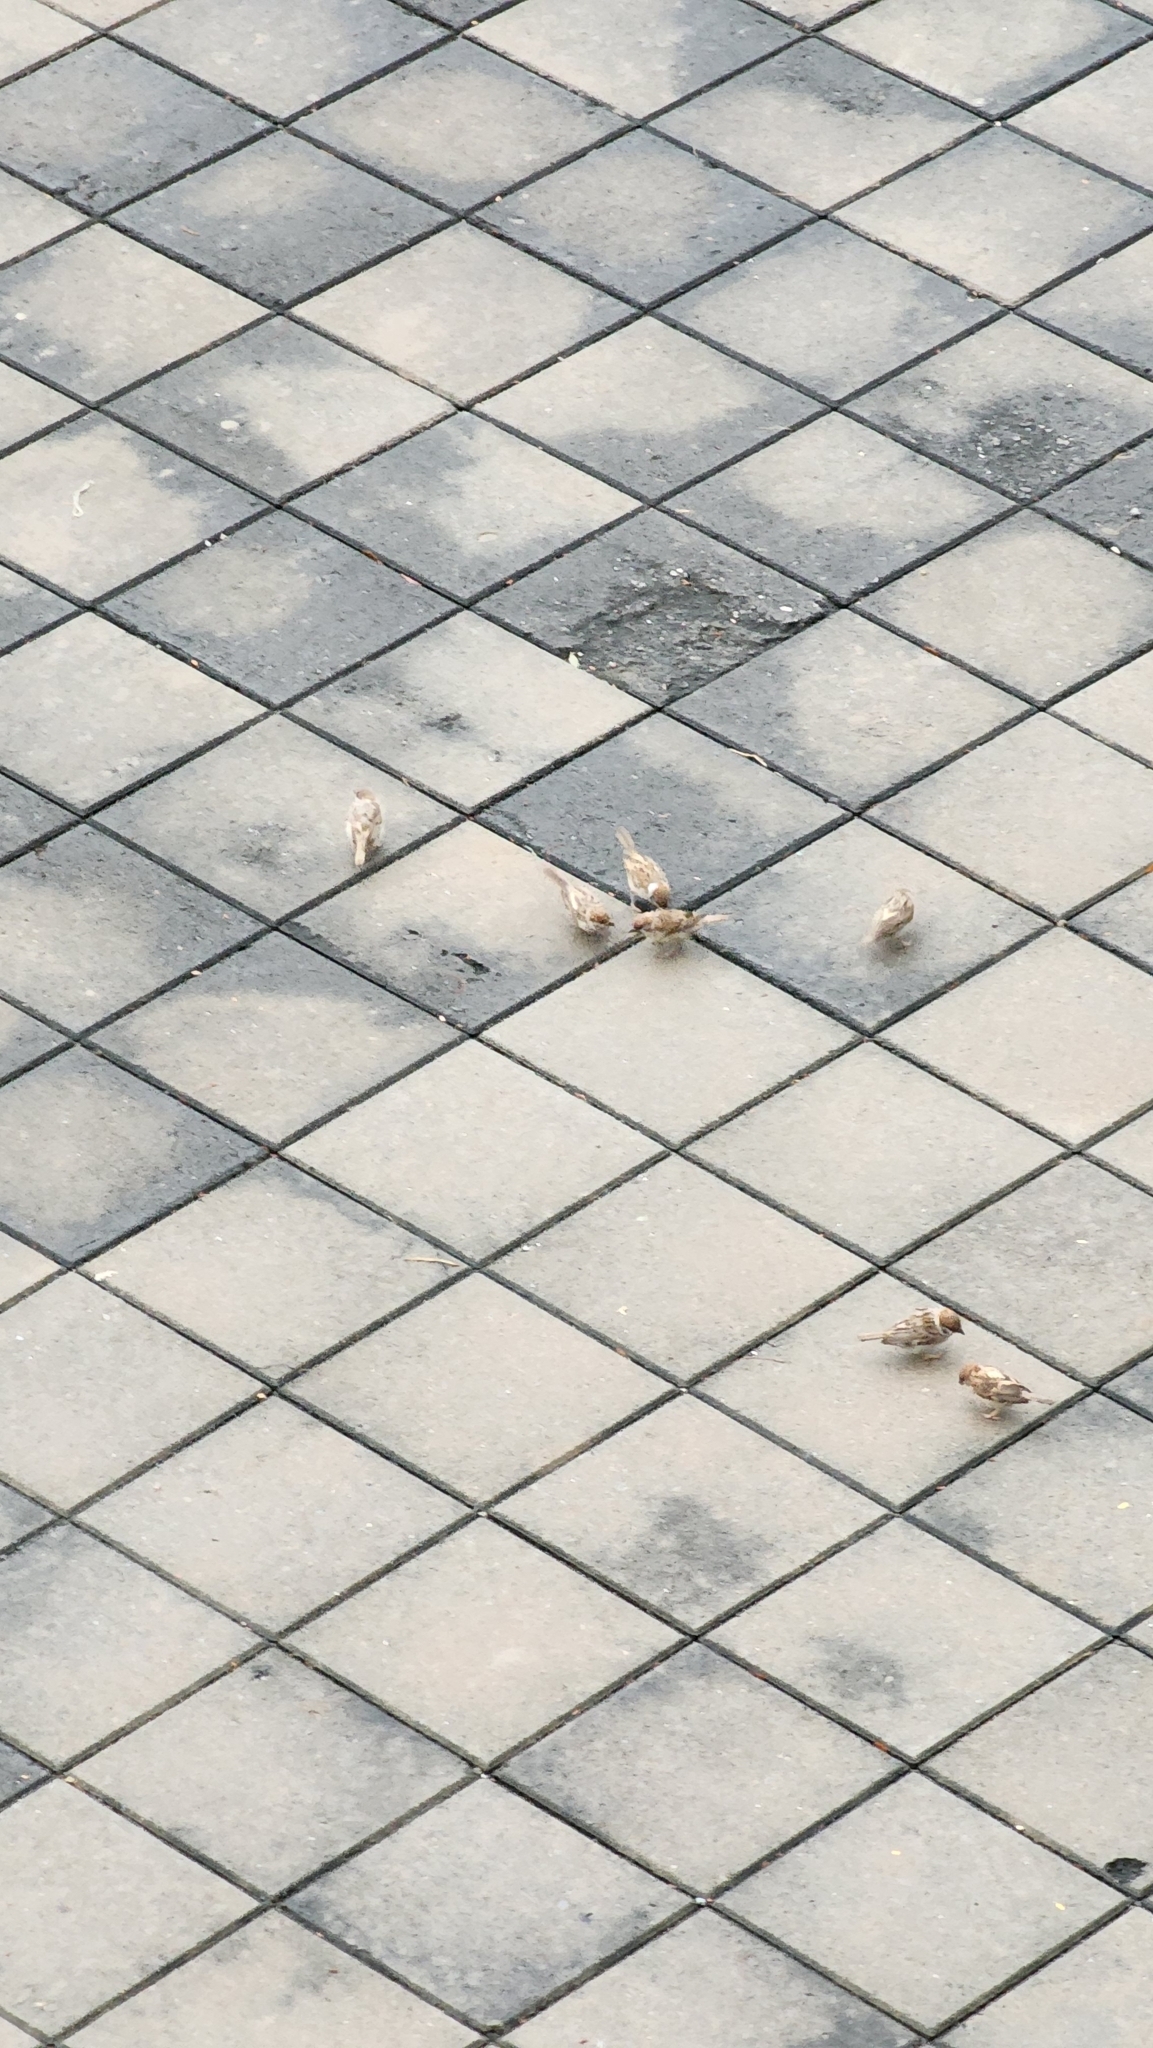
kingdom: Animalia
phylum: Chordata
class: Aves
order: Passeriformes
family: Passeridae
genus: Passer
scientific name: Passer montanus
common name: Eurasian tree sparrow
